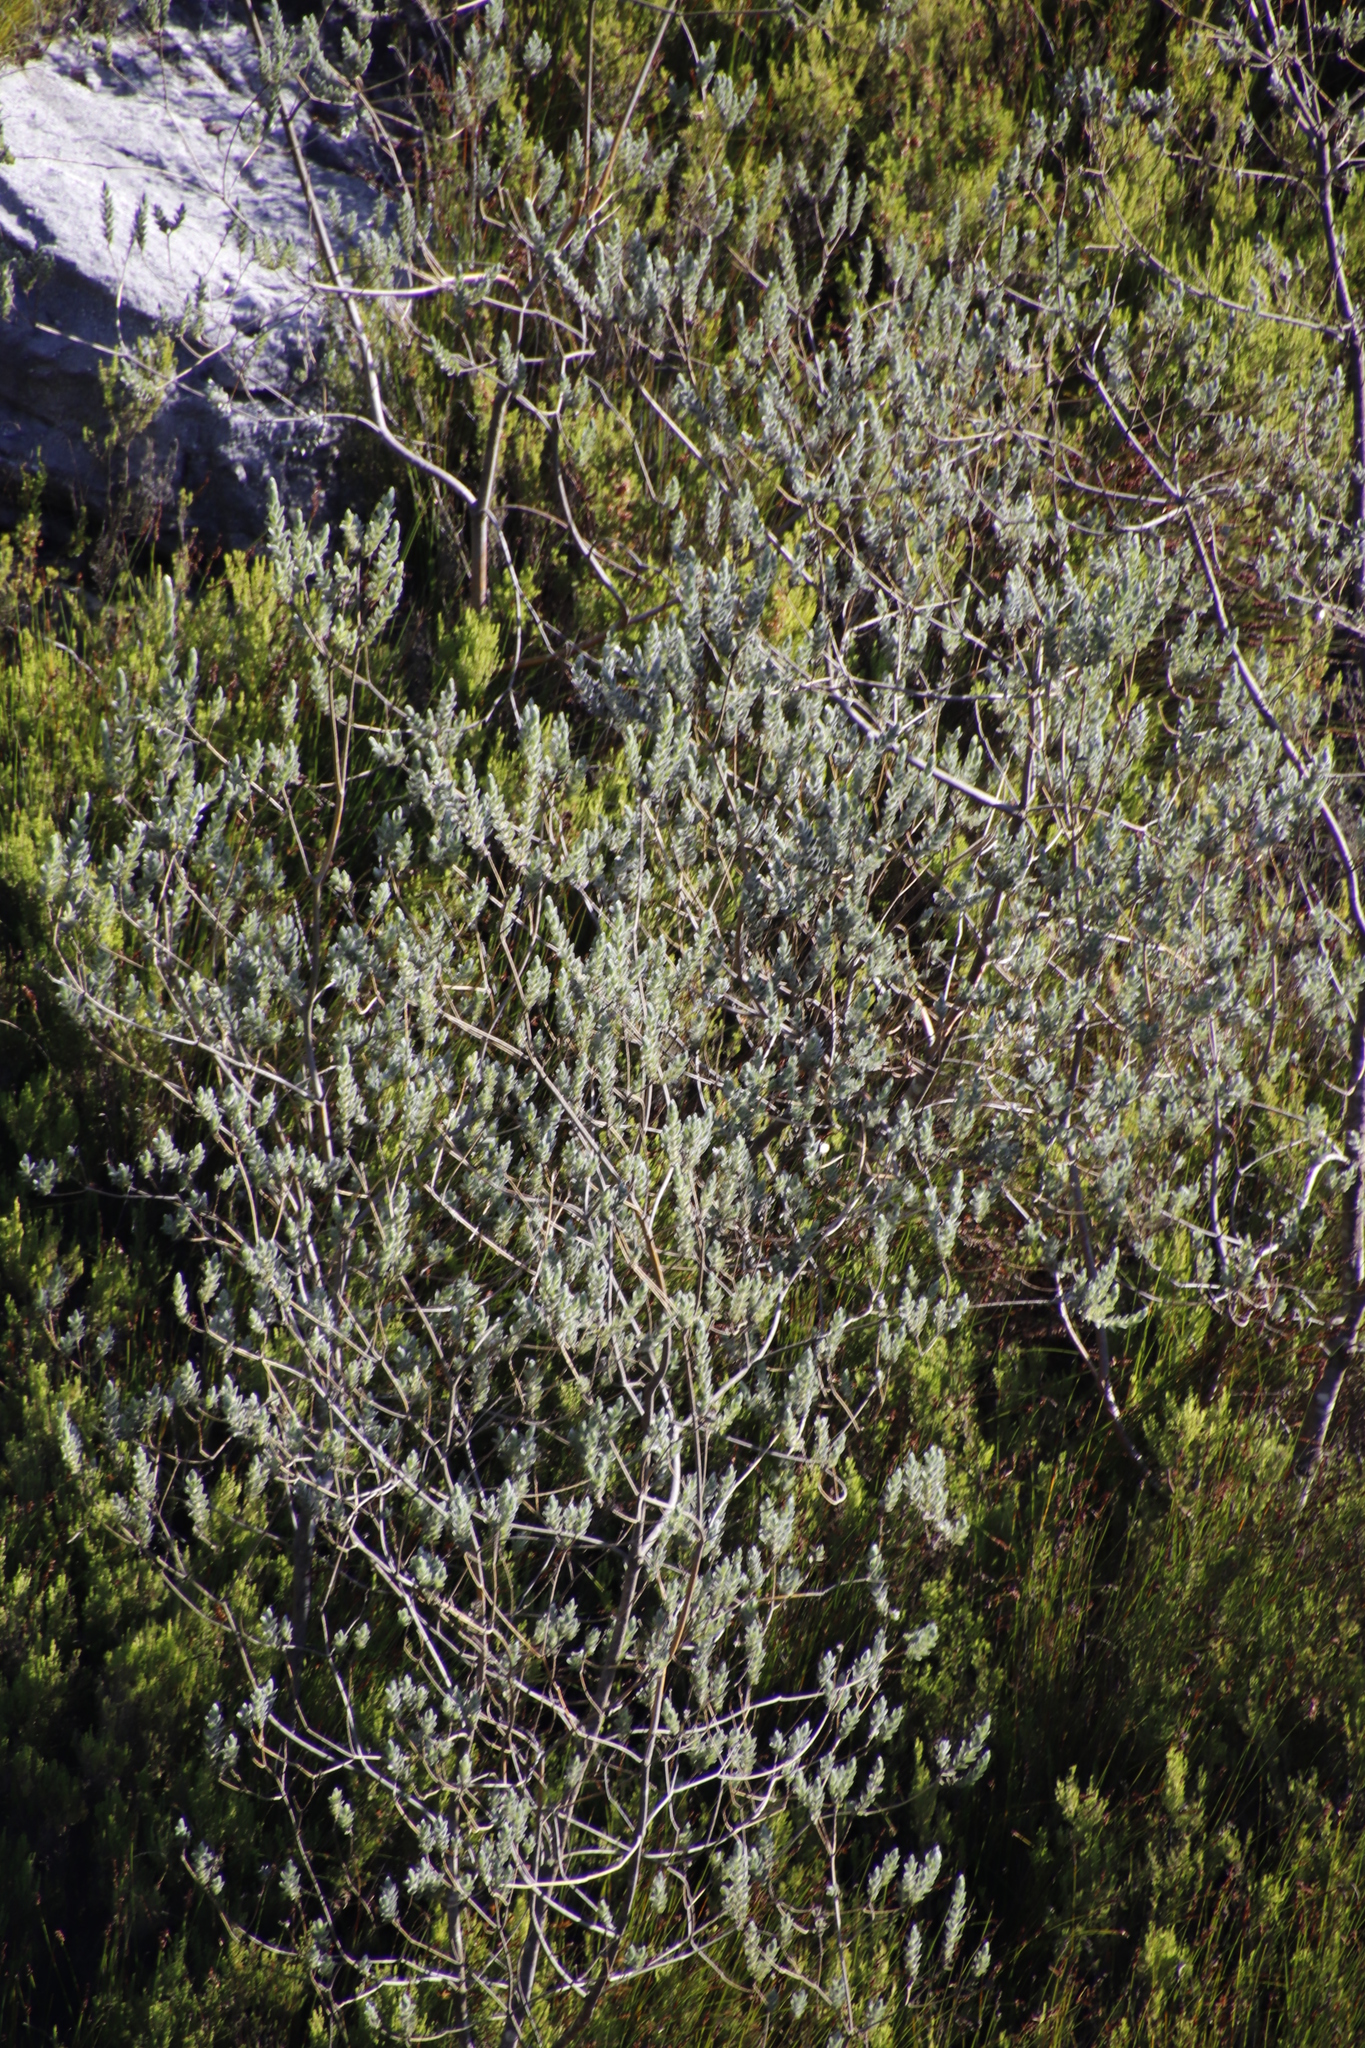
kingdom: Plantae
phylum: Tracheophyta
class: Magnoliopsida
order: Fabales
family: Fabaceae
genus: Liparia
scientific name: Liparia calycina
